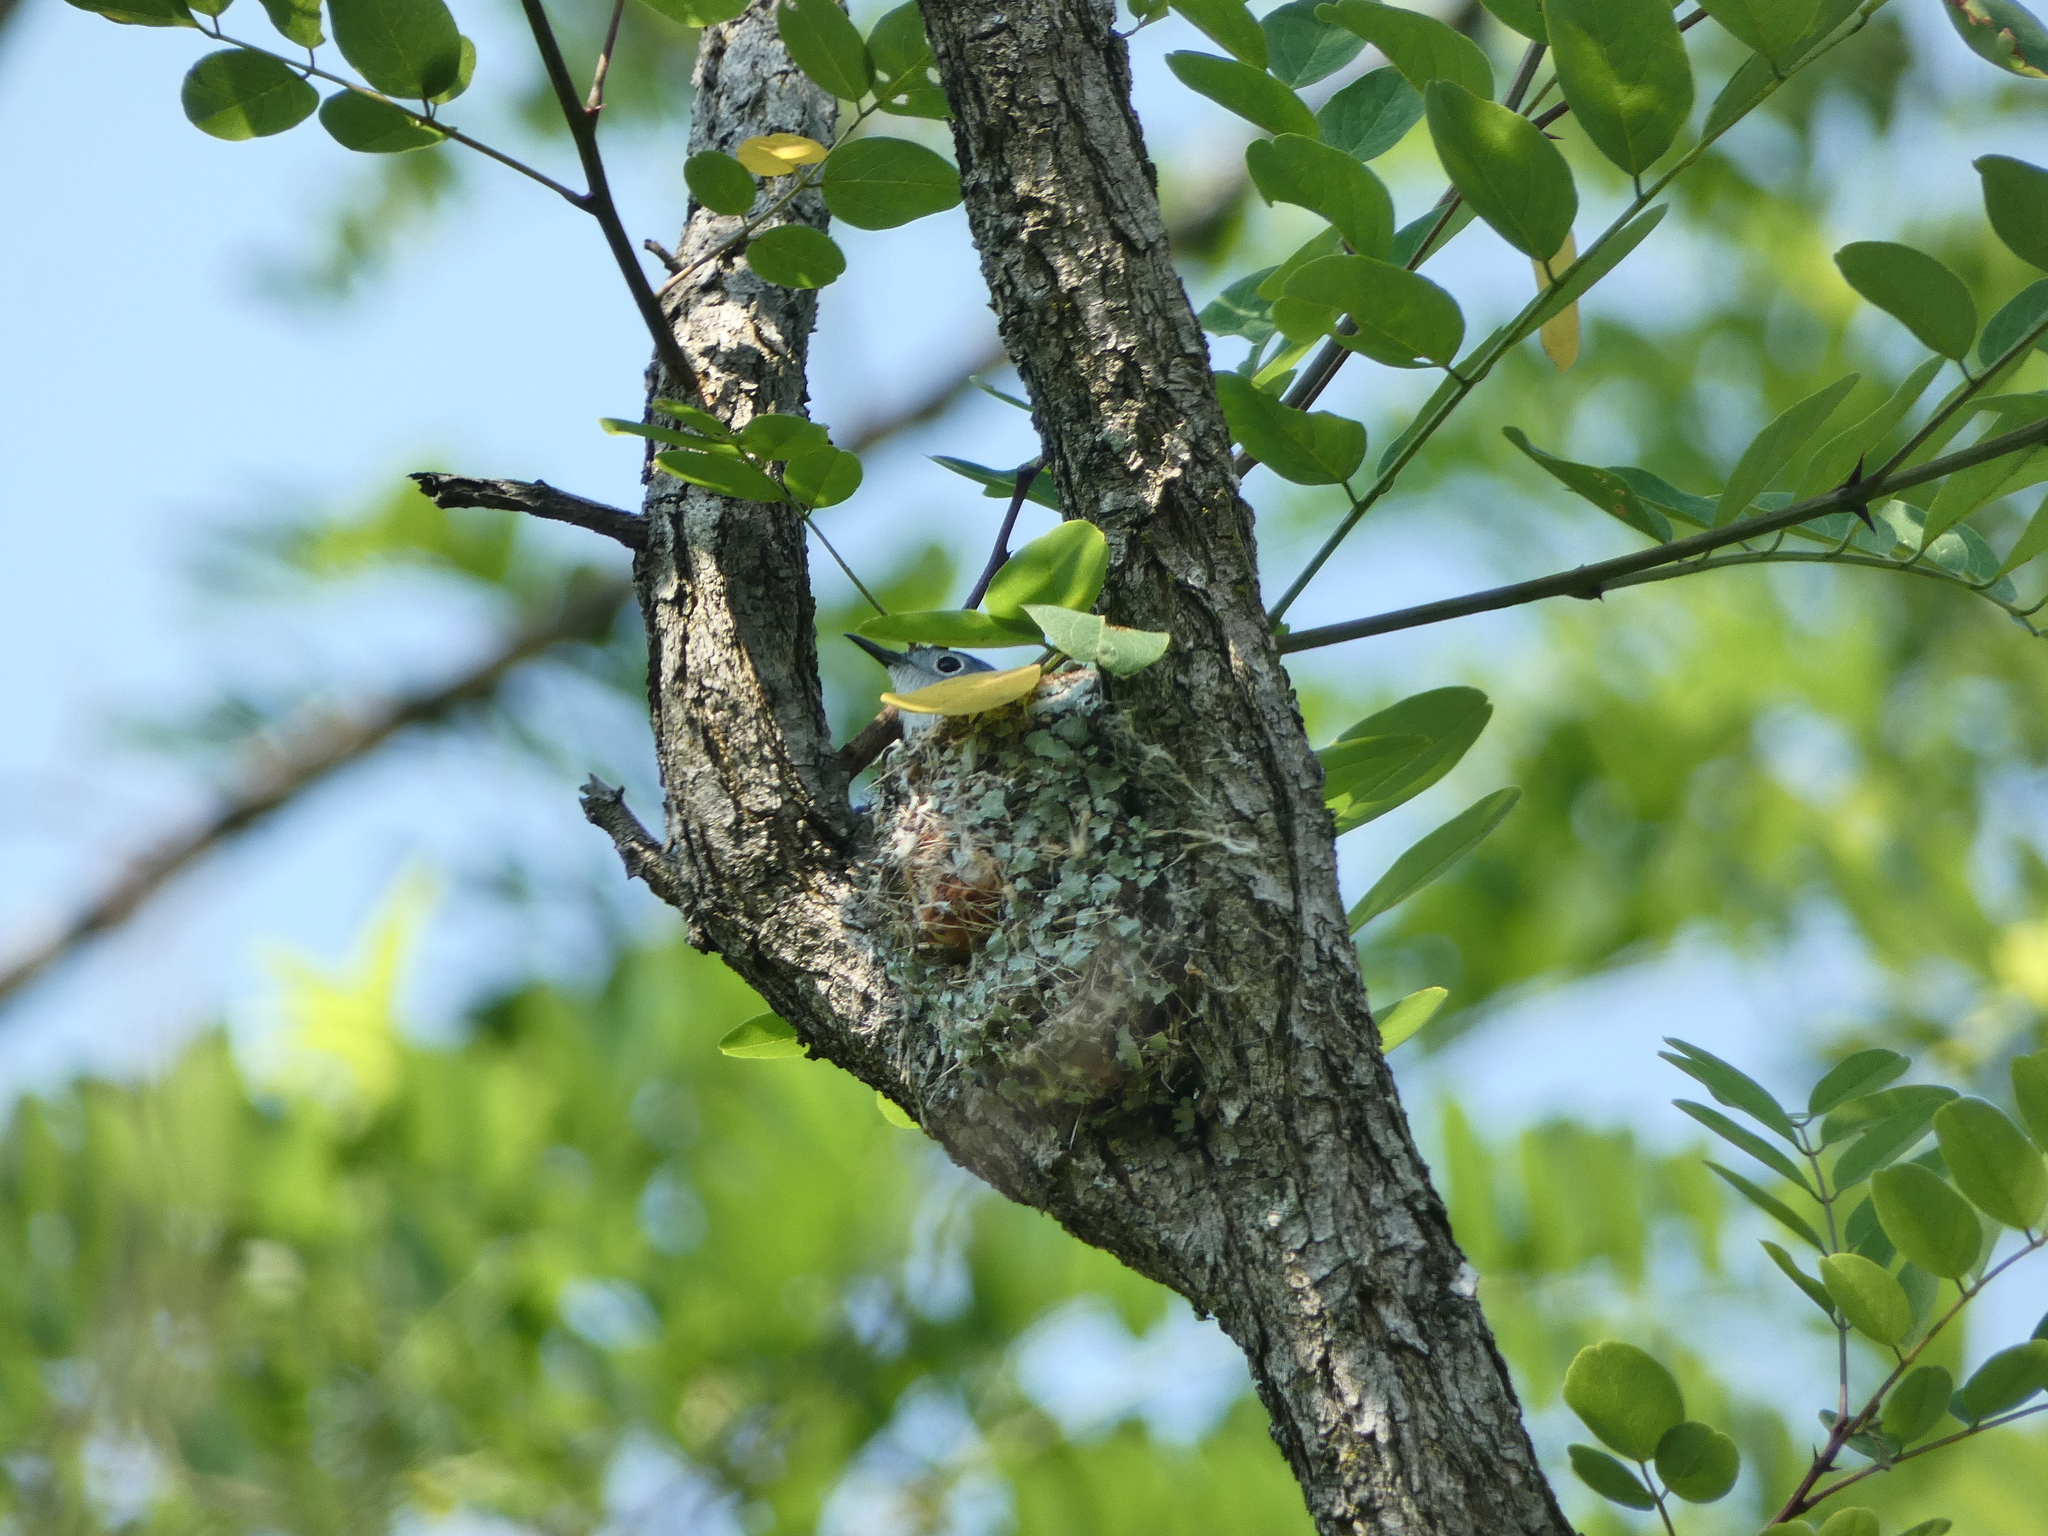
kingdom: Animalia
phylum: Chordata
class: Aves
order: Passeriformes
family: Polioptilidae
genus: Polioptila
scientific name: Polioptila caerulea
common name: Blue-gray gnatcatcher
